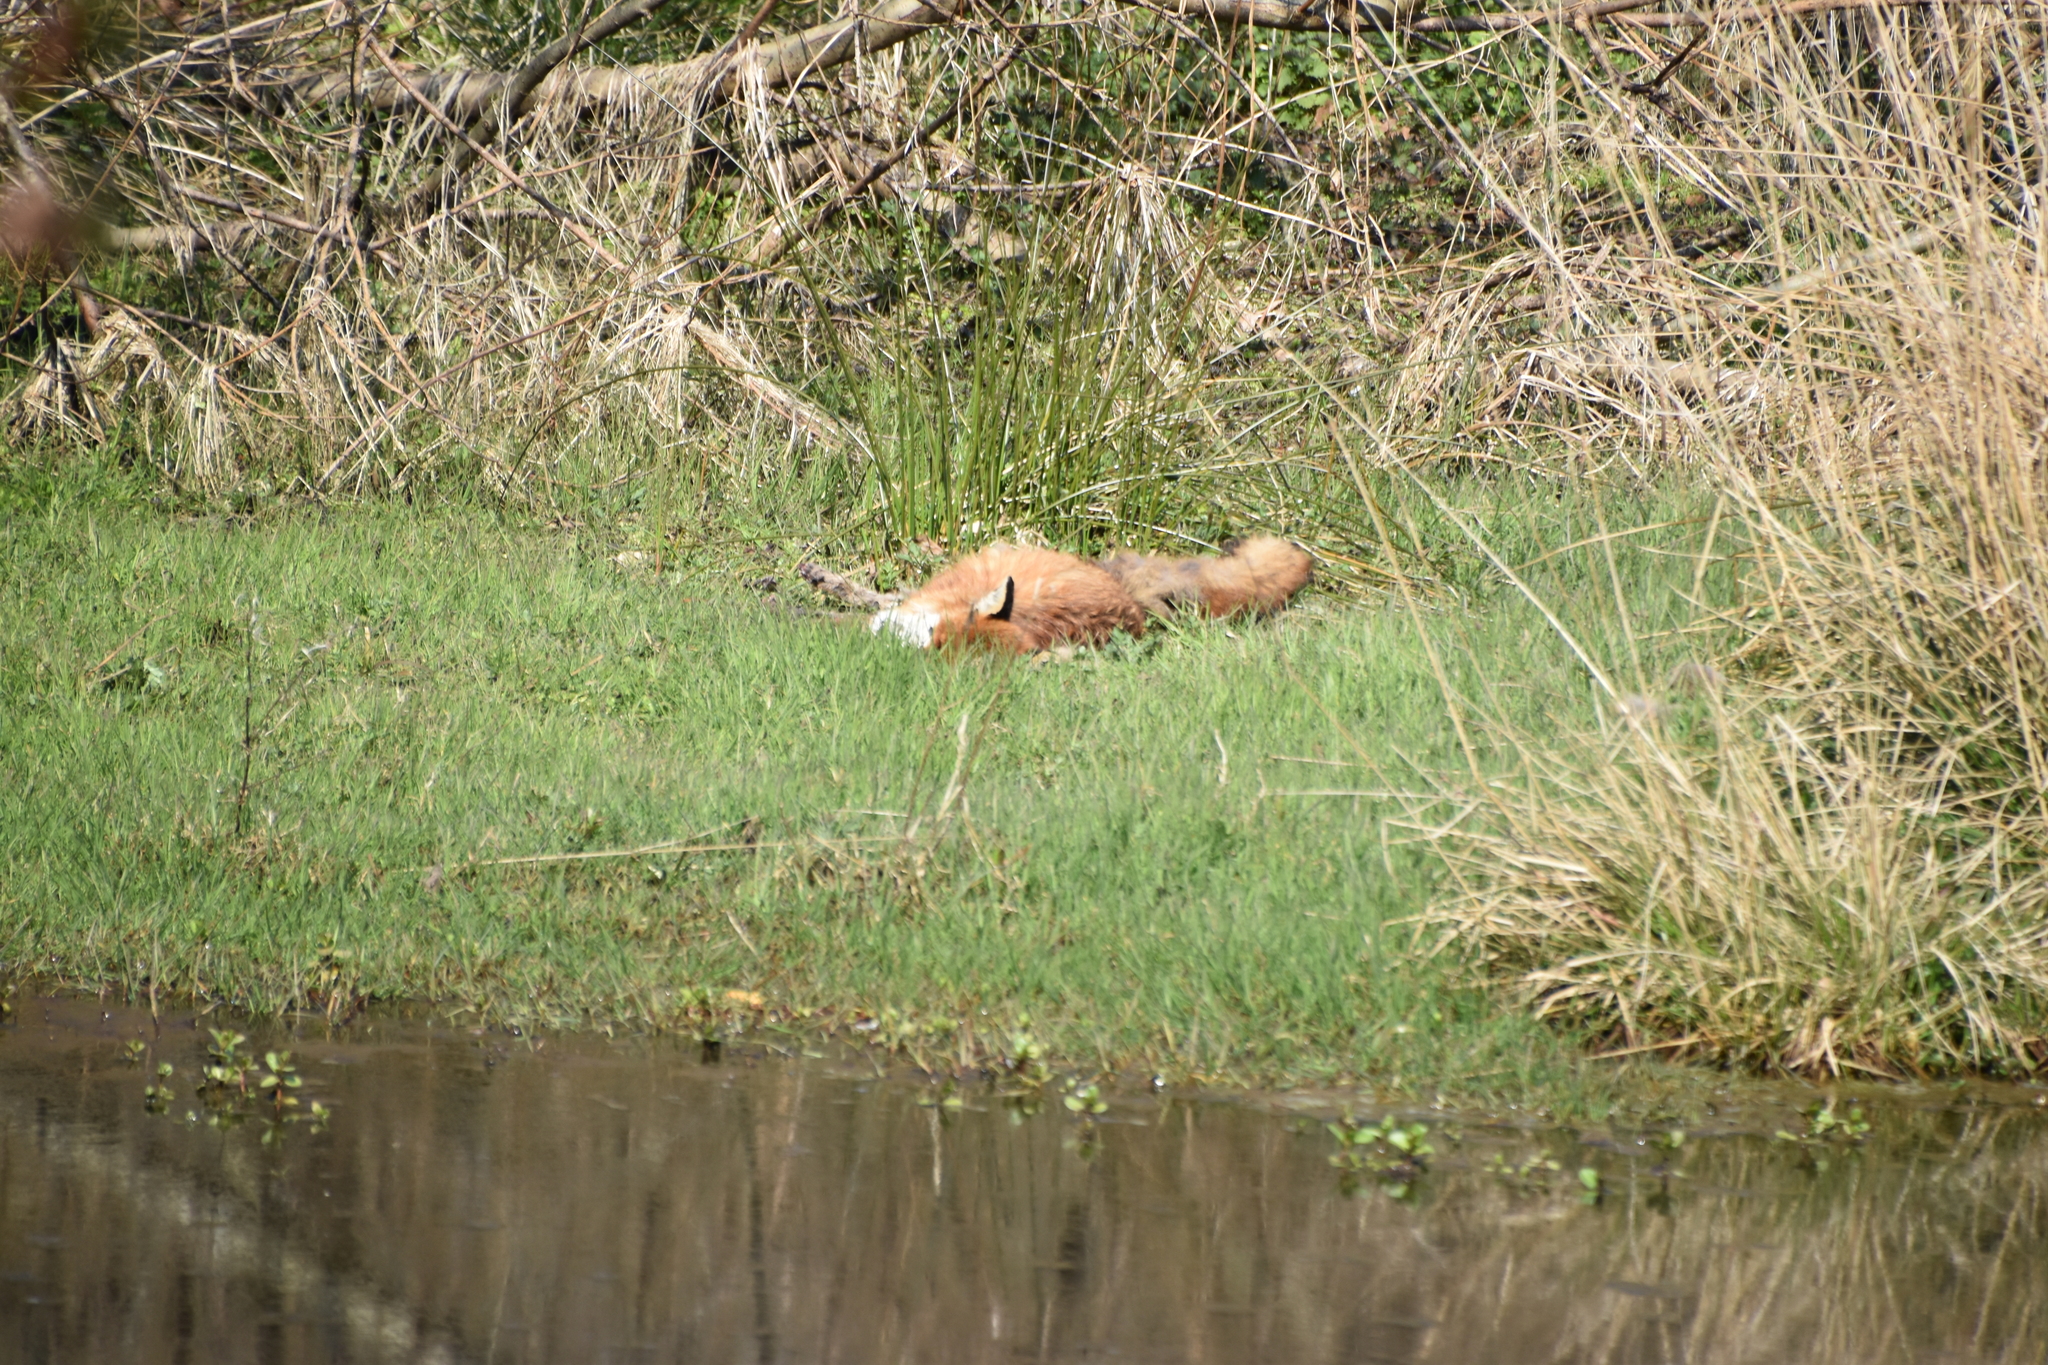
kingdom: Animalia
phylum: Chordata
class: Mammalia
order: Carnivora
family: Canidae
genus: Vulpes
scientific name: Vulpes vulpes
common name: Red fox
